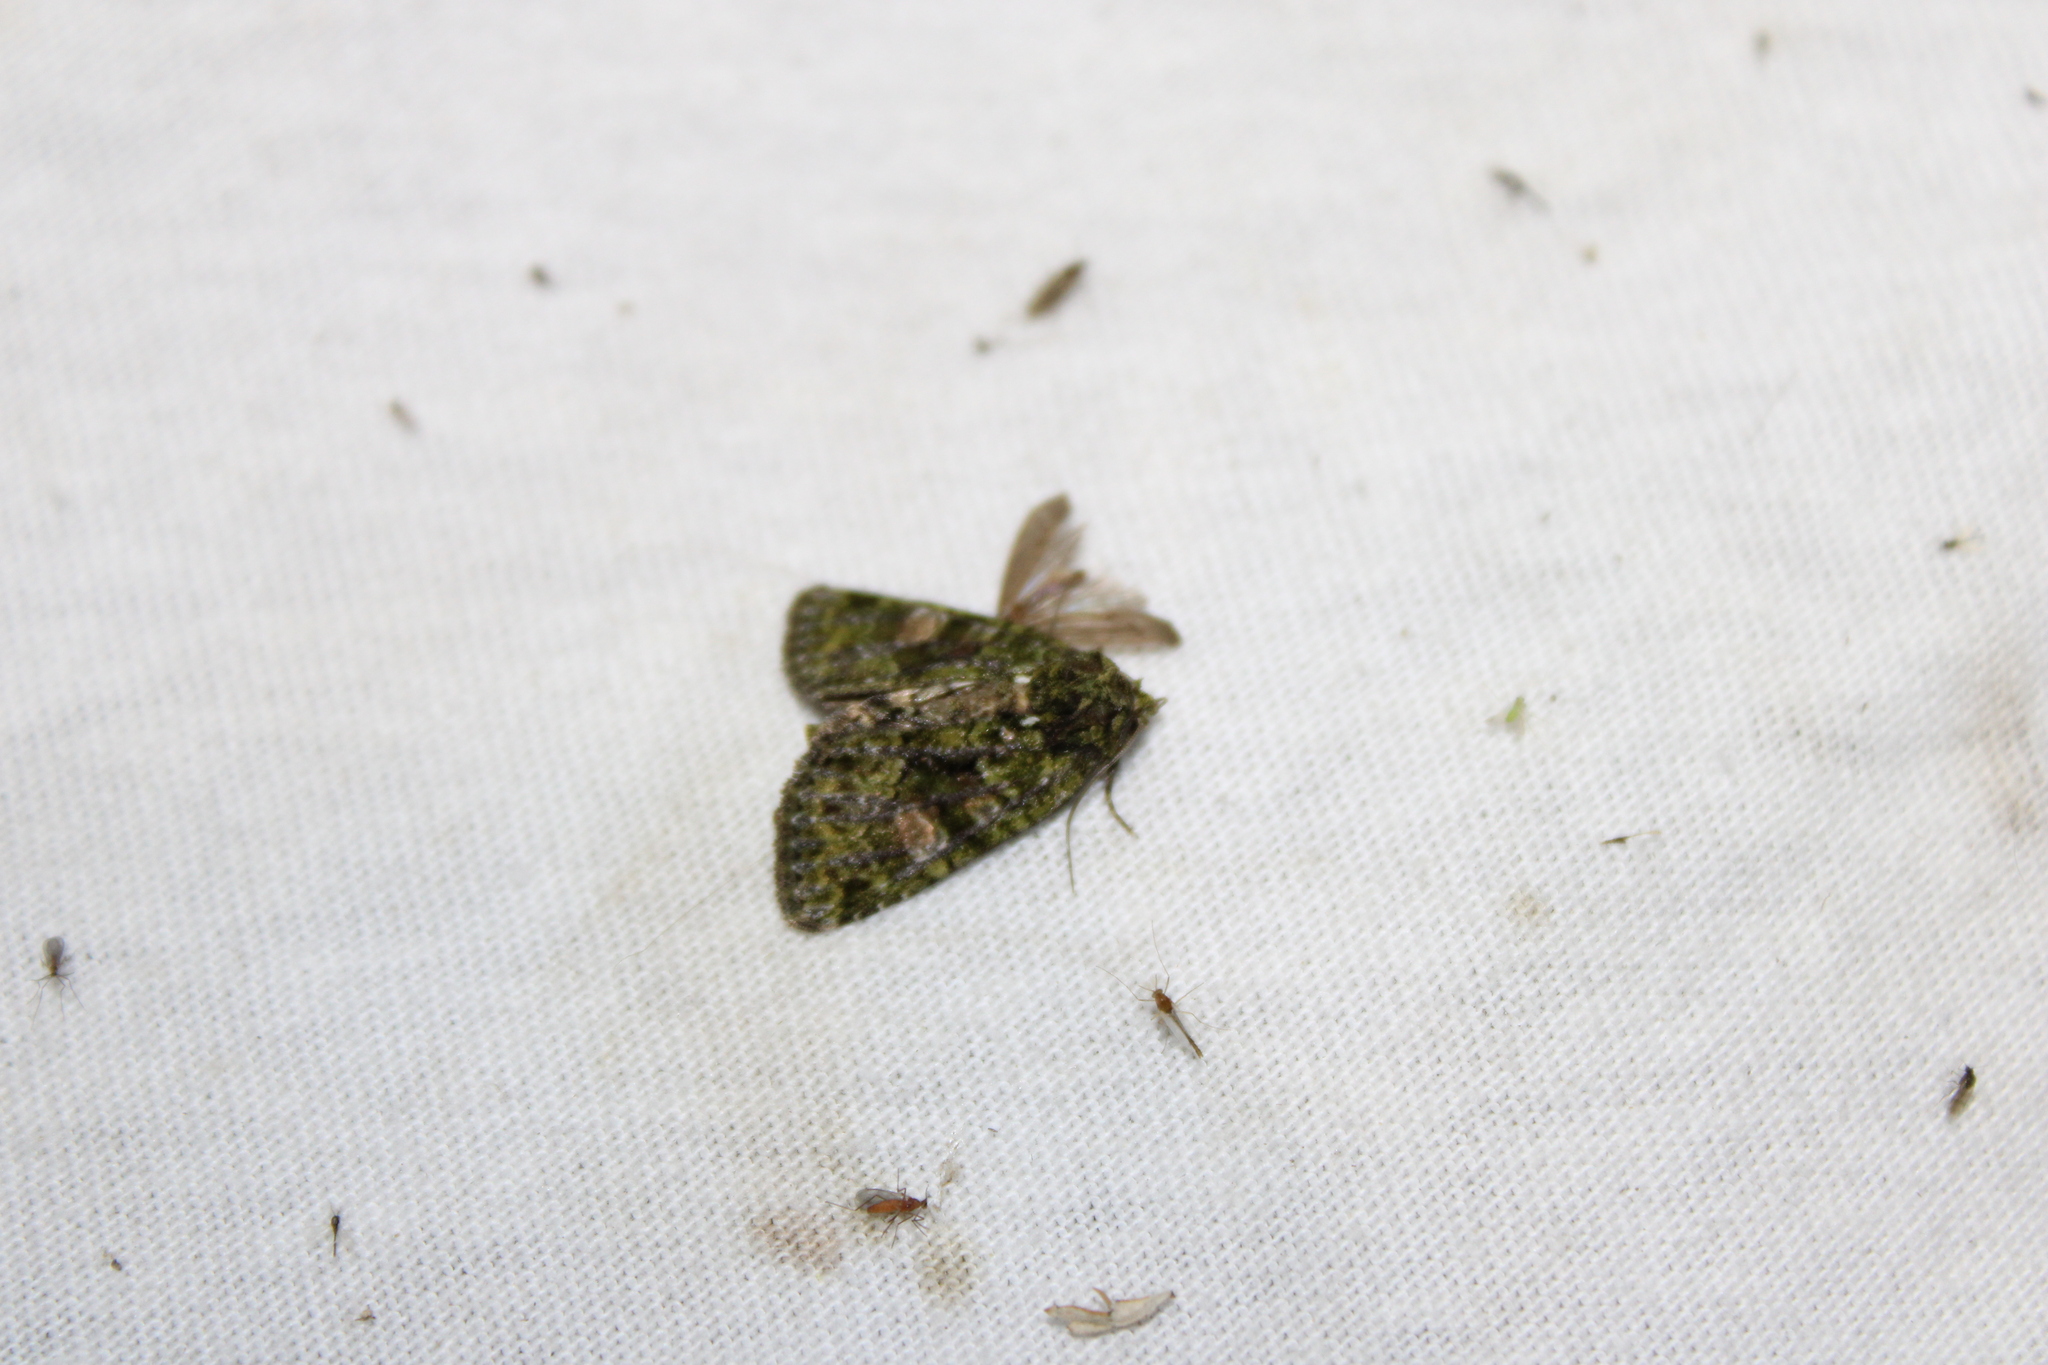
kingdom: Animalia
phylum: Arthropoda
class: Insecta
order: Lepidoptera
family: Noctuidae
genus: Phosphila
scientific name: Phosphila miselioides
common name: Spotted phosphila moth
